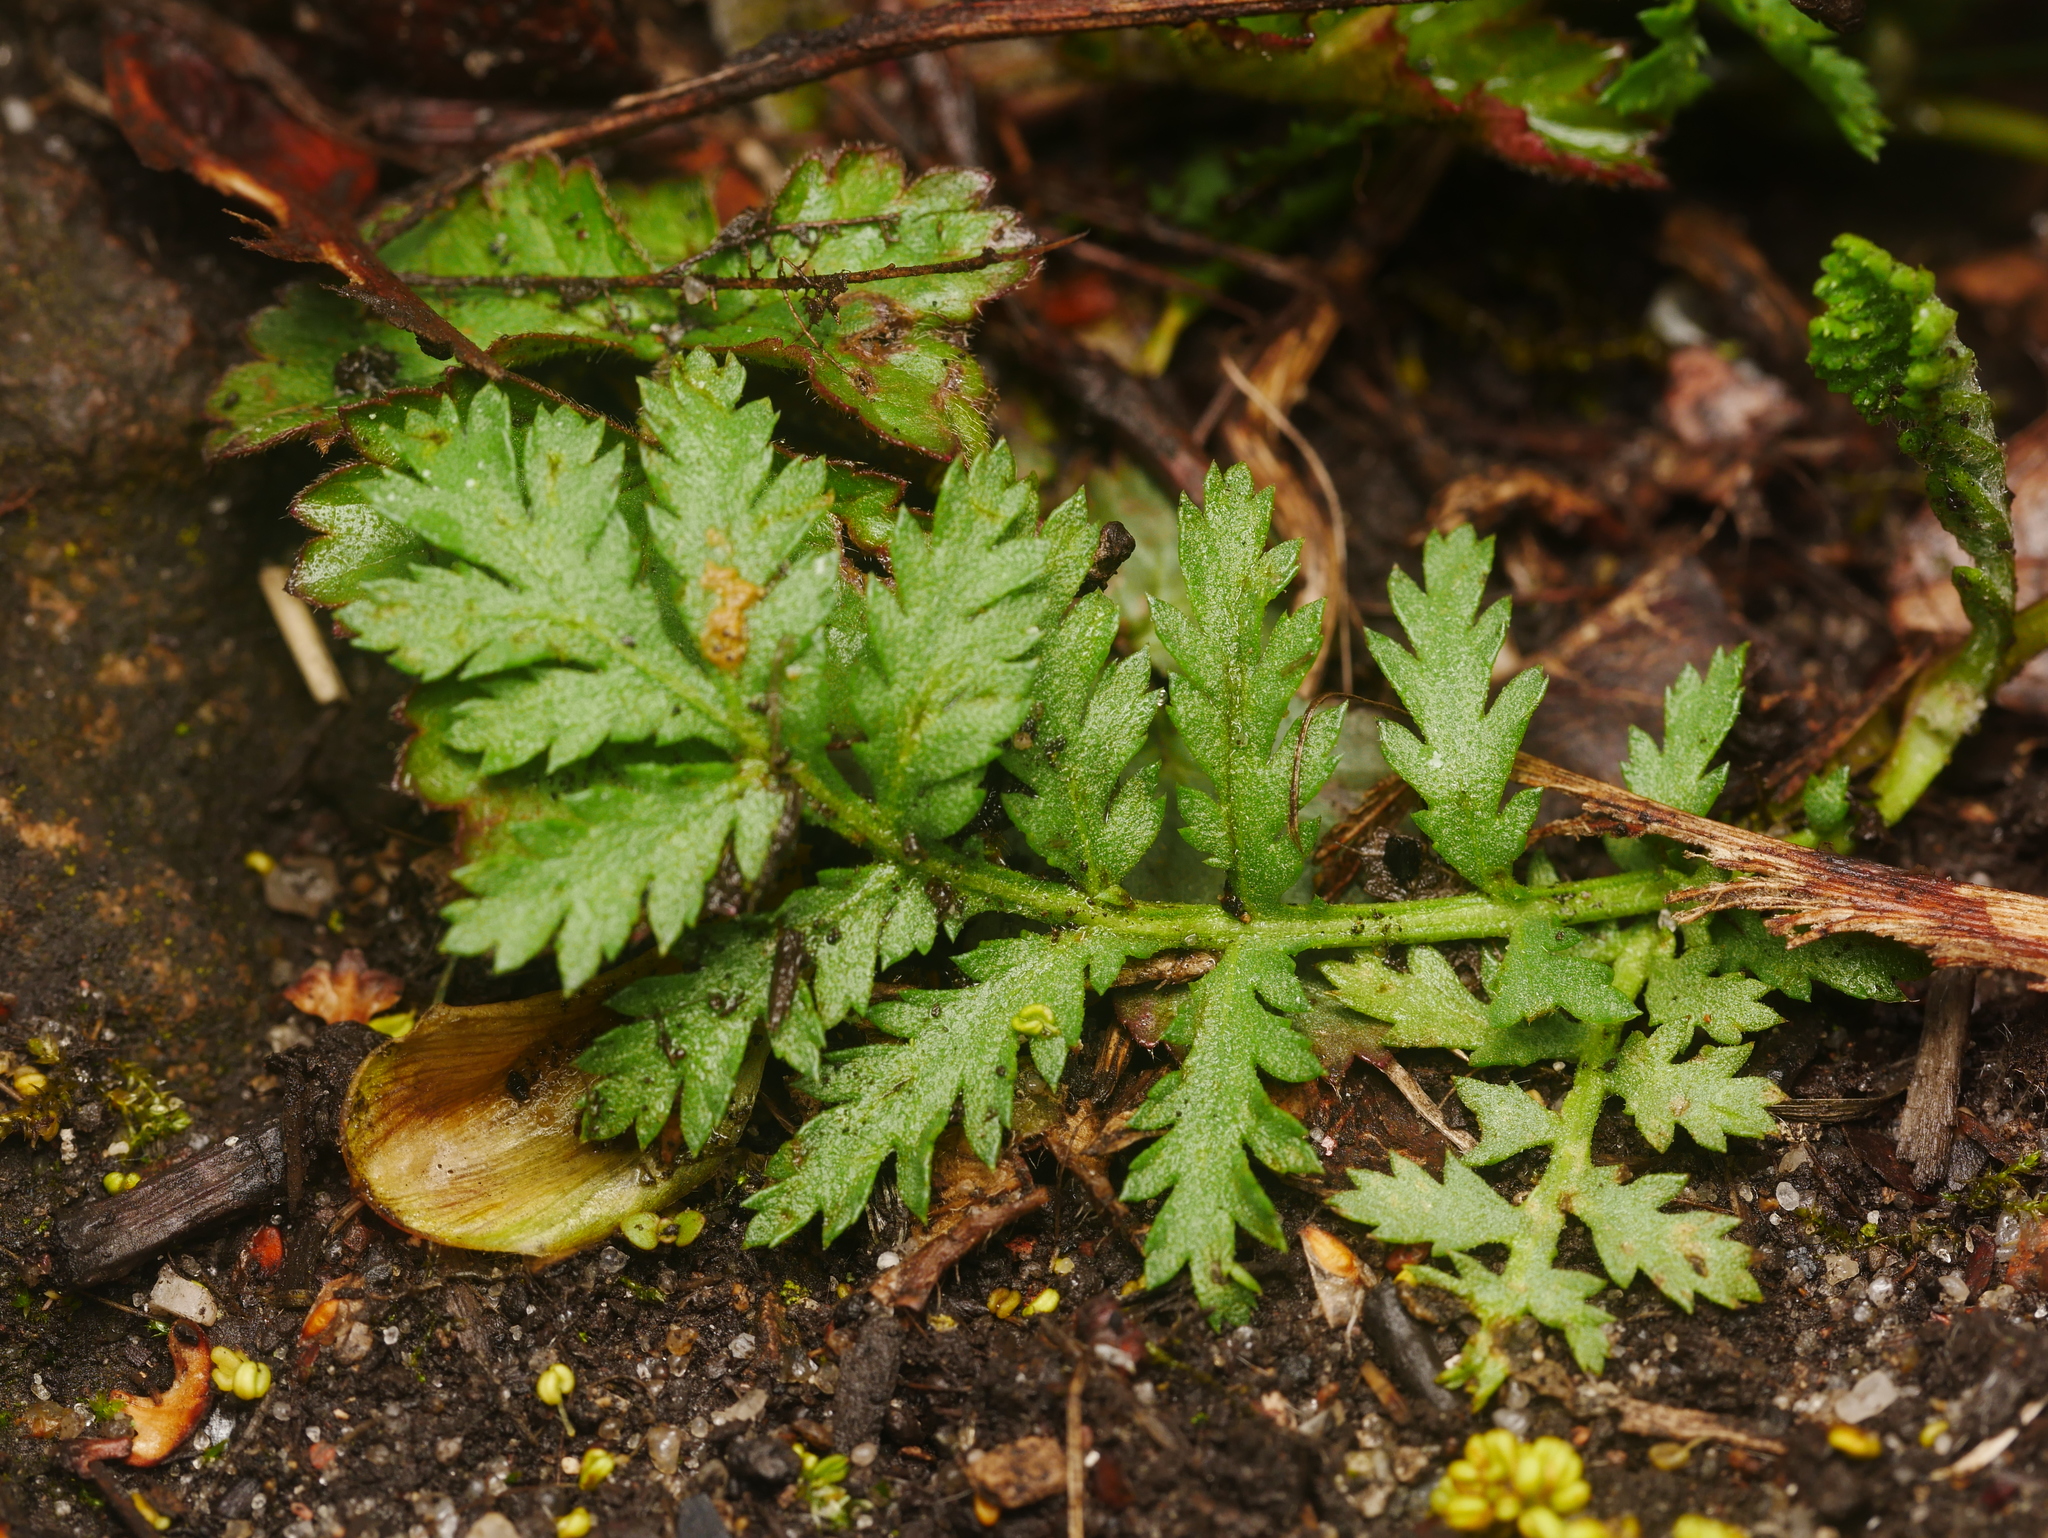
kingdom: Plantae
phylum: Tracheophyta
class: Magnoliopsida
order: Asterales
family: Asteraceae
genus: Tanacetum
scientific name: Tanacetum vulgare
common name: Common tansy
